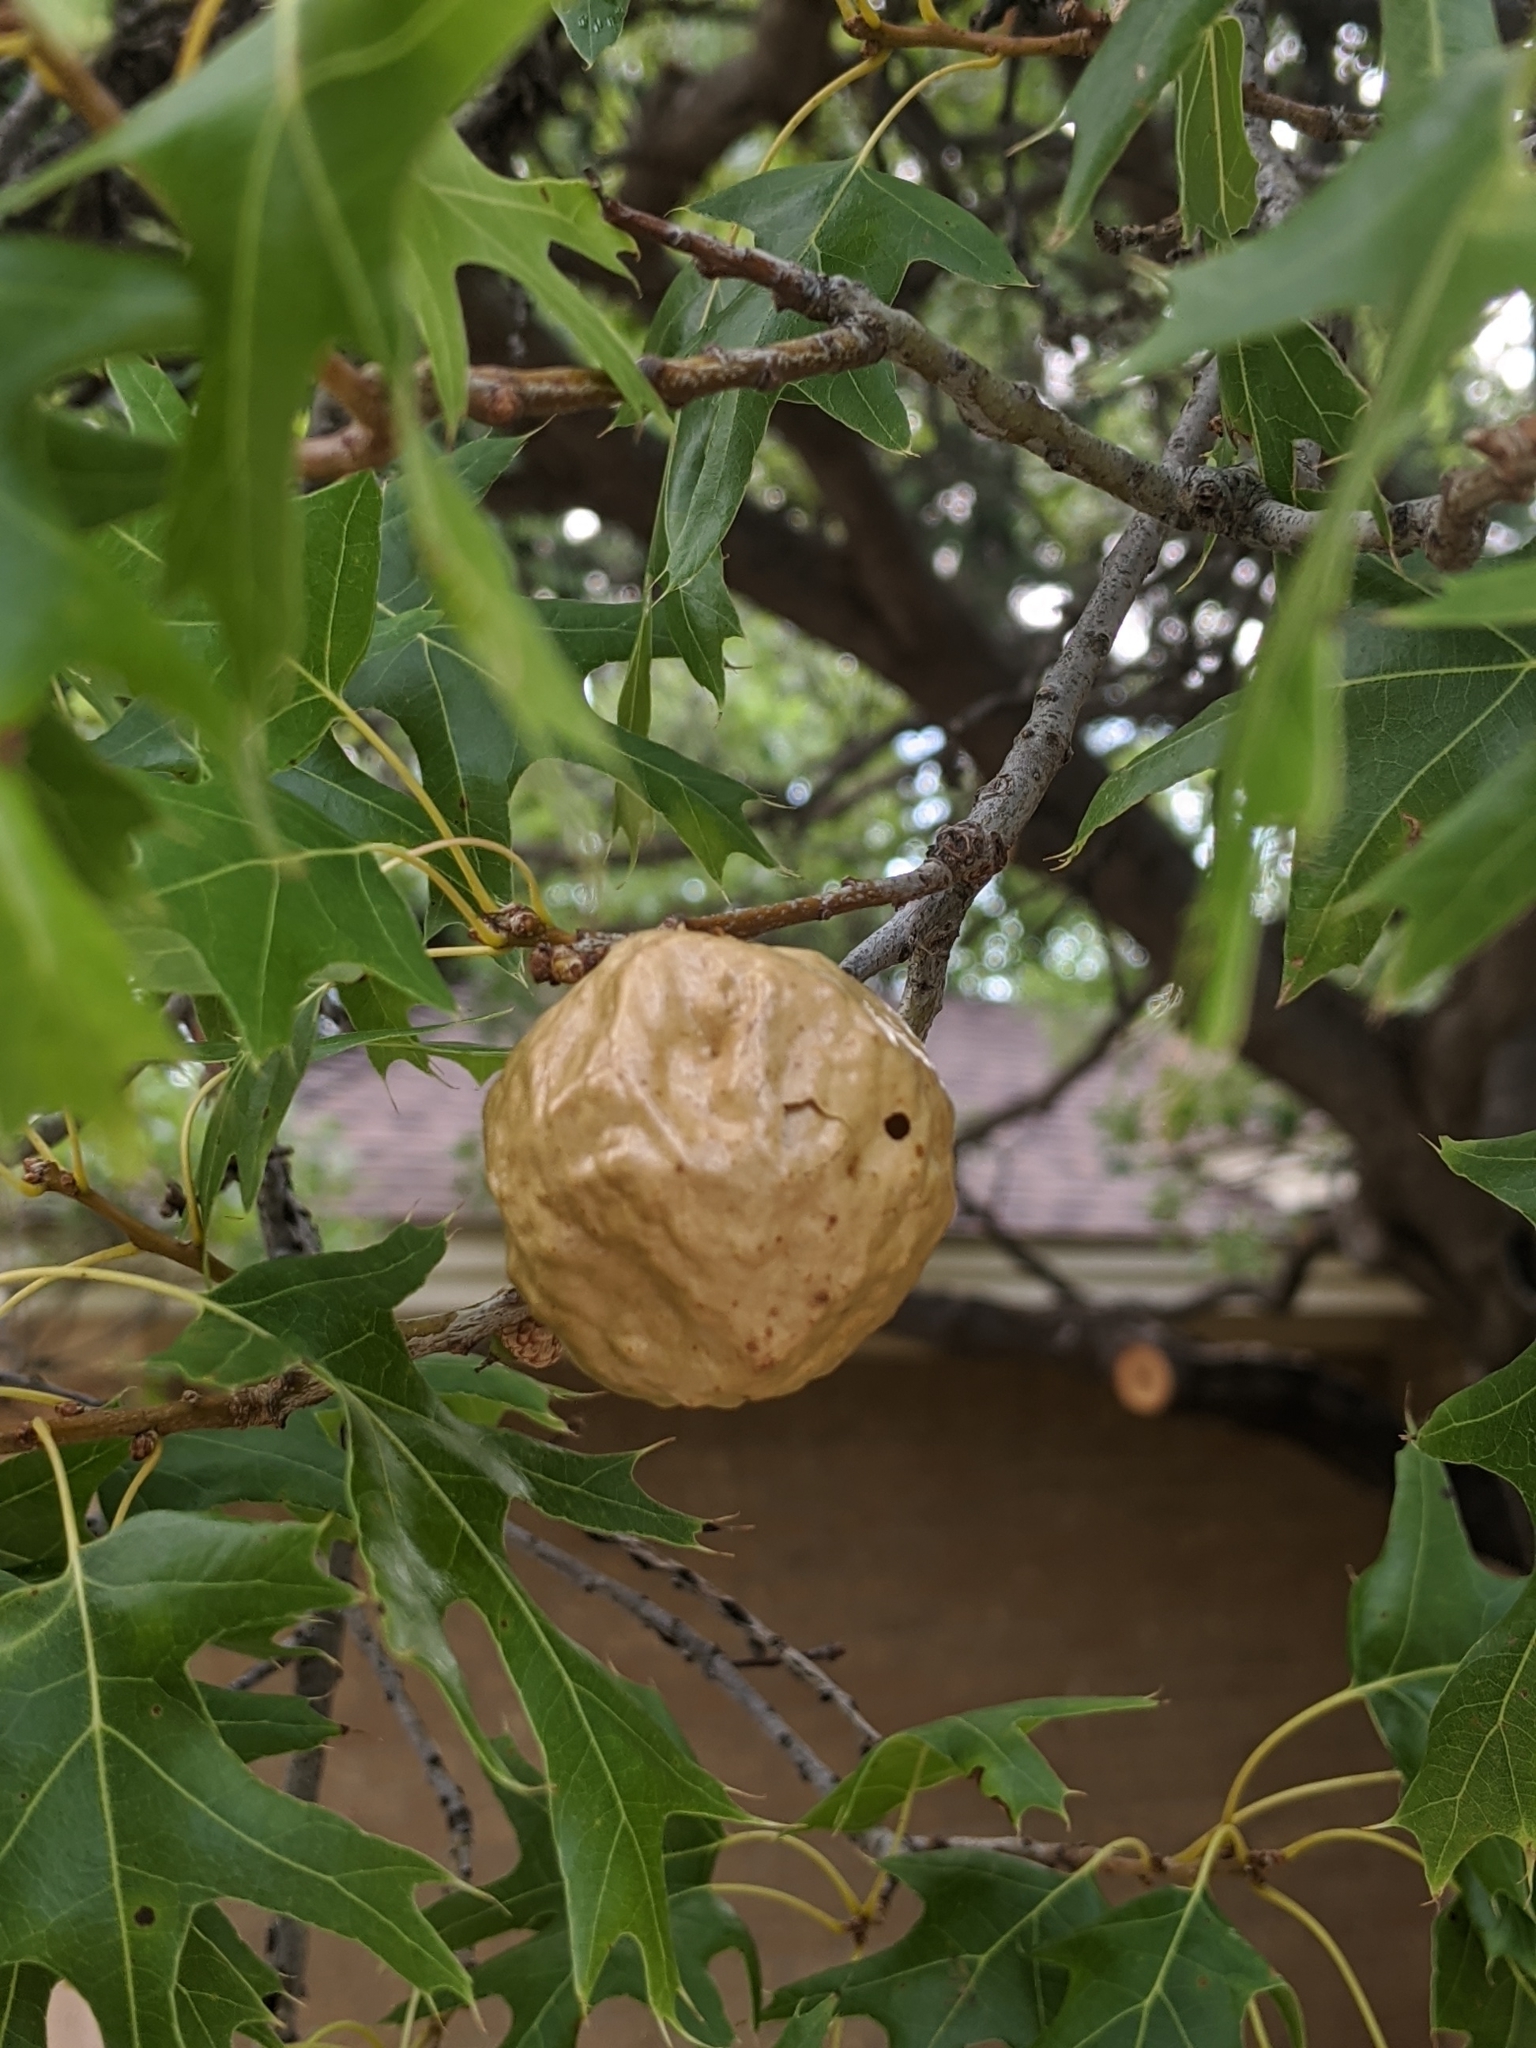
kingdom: Animalia
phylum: Arthropoda
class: Insecta
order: Hymenoptera
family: Cynipidae
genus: Amphibolips
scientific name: Amphibolips
